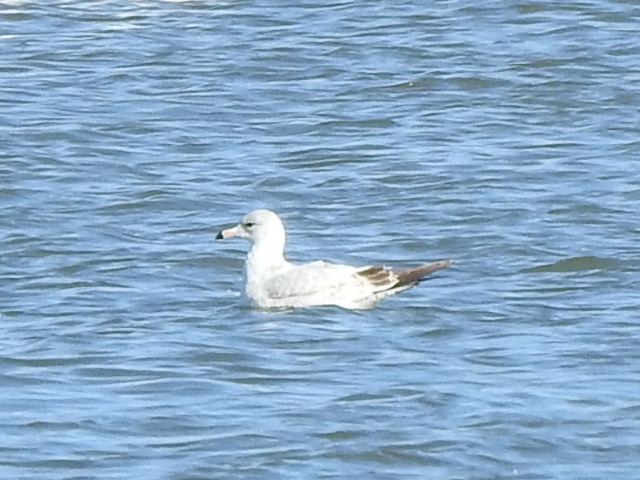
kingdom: Animalia
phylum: Chordata
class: Aves
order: Charadriiformes
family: Laridae
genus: Larus
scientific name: Larus delawarensis
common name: Ring-billed gull
